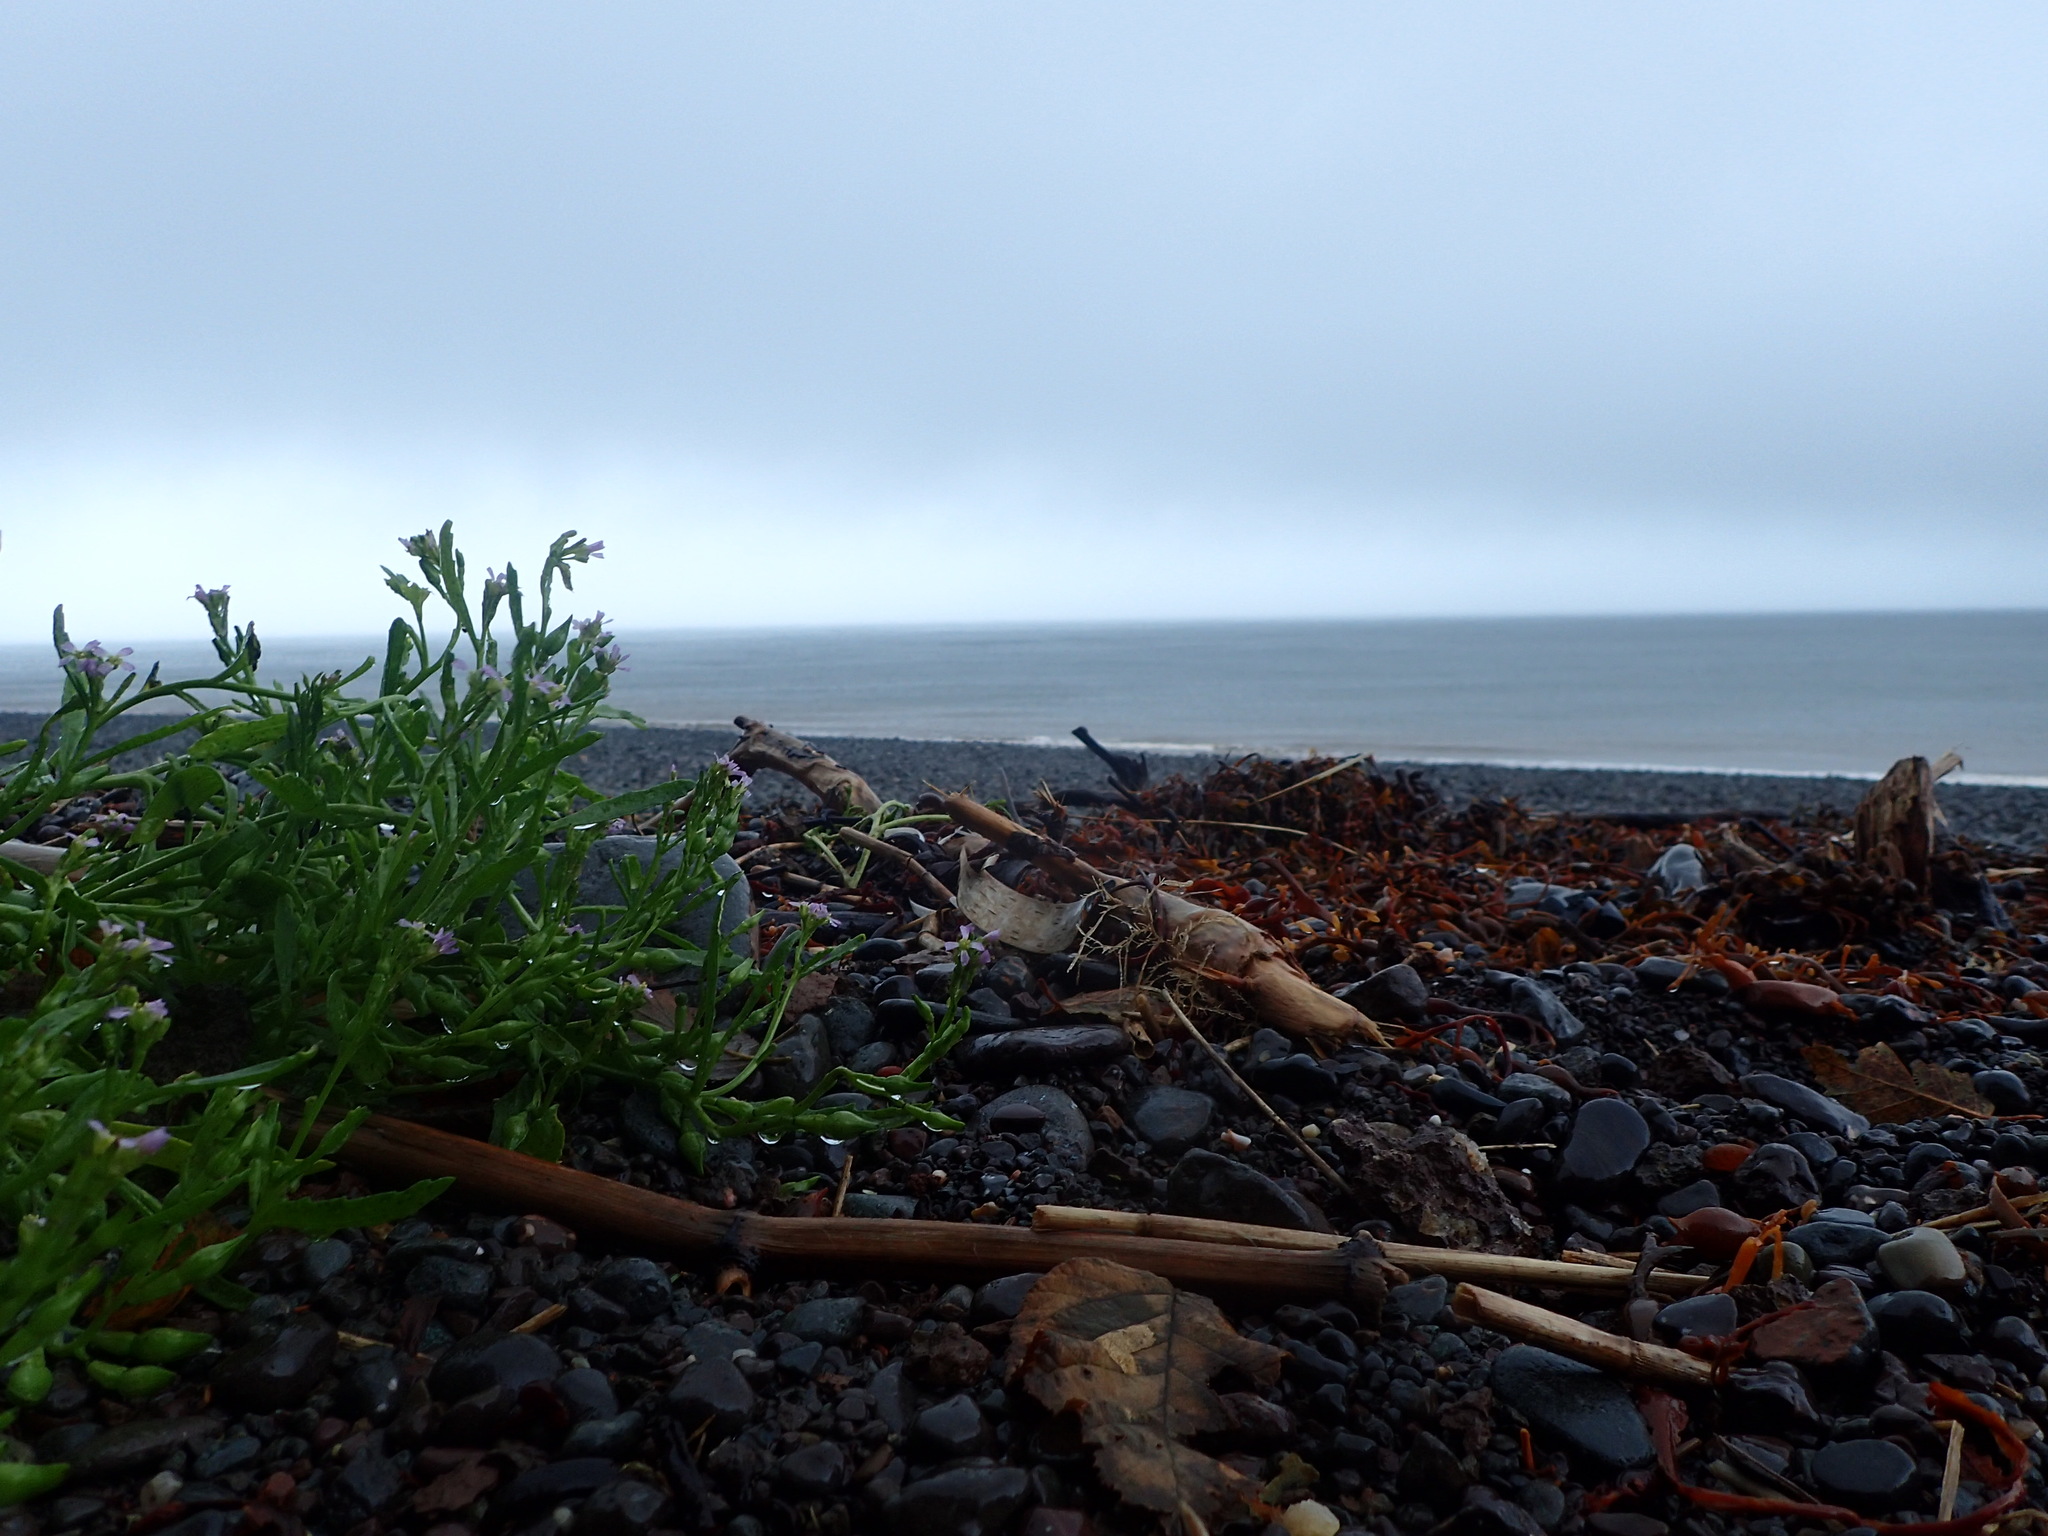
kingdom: Plantae
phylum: Tracheophyta
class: Magnoliopsida
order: Brassicales
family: Brassicaceae
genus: Cakile
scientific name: Cakile edentula
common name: American sea rocket
